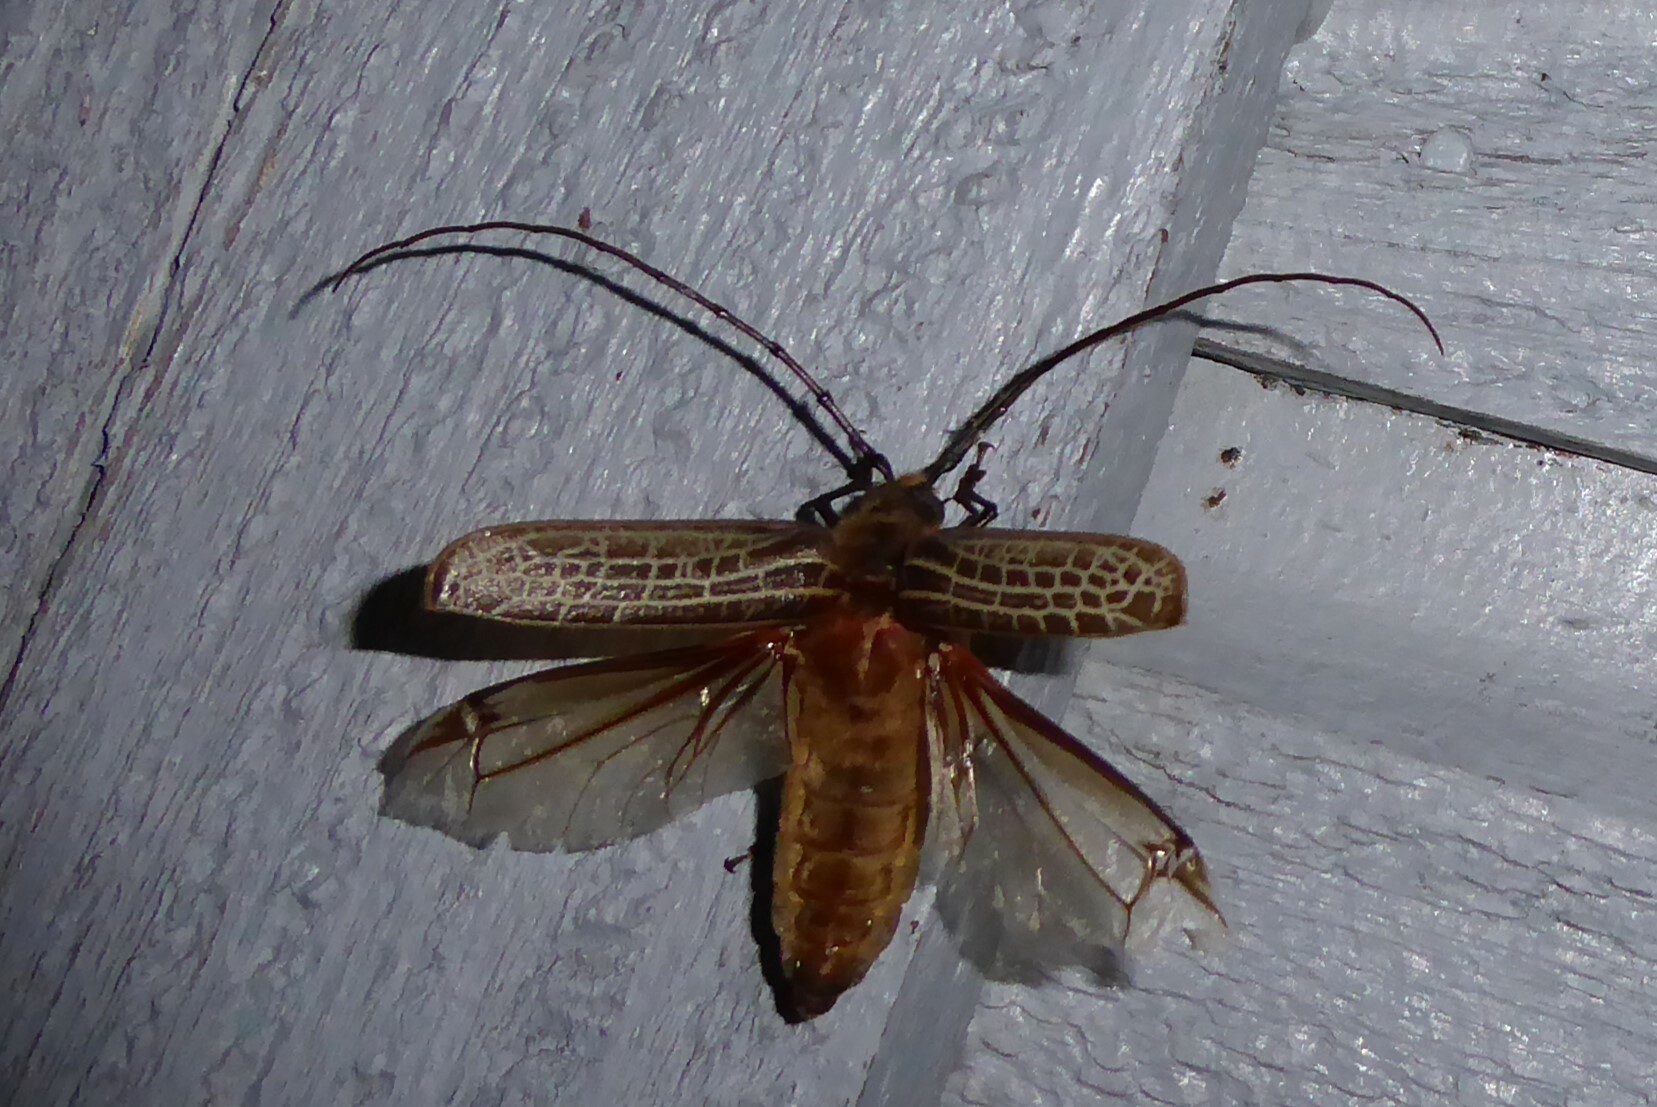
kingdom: Animalia
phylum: Arthropoda
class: Insecta
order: Coleoptera
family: Cerambycidae
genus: Prionoplus
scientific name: Prionoplus reticularis
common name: Huhu beetle
